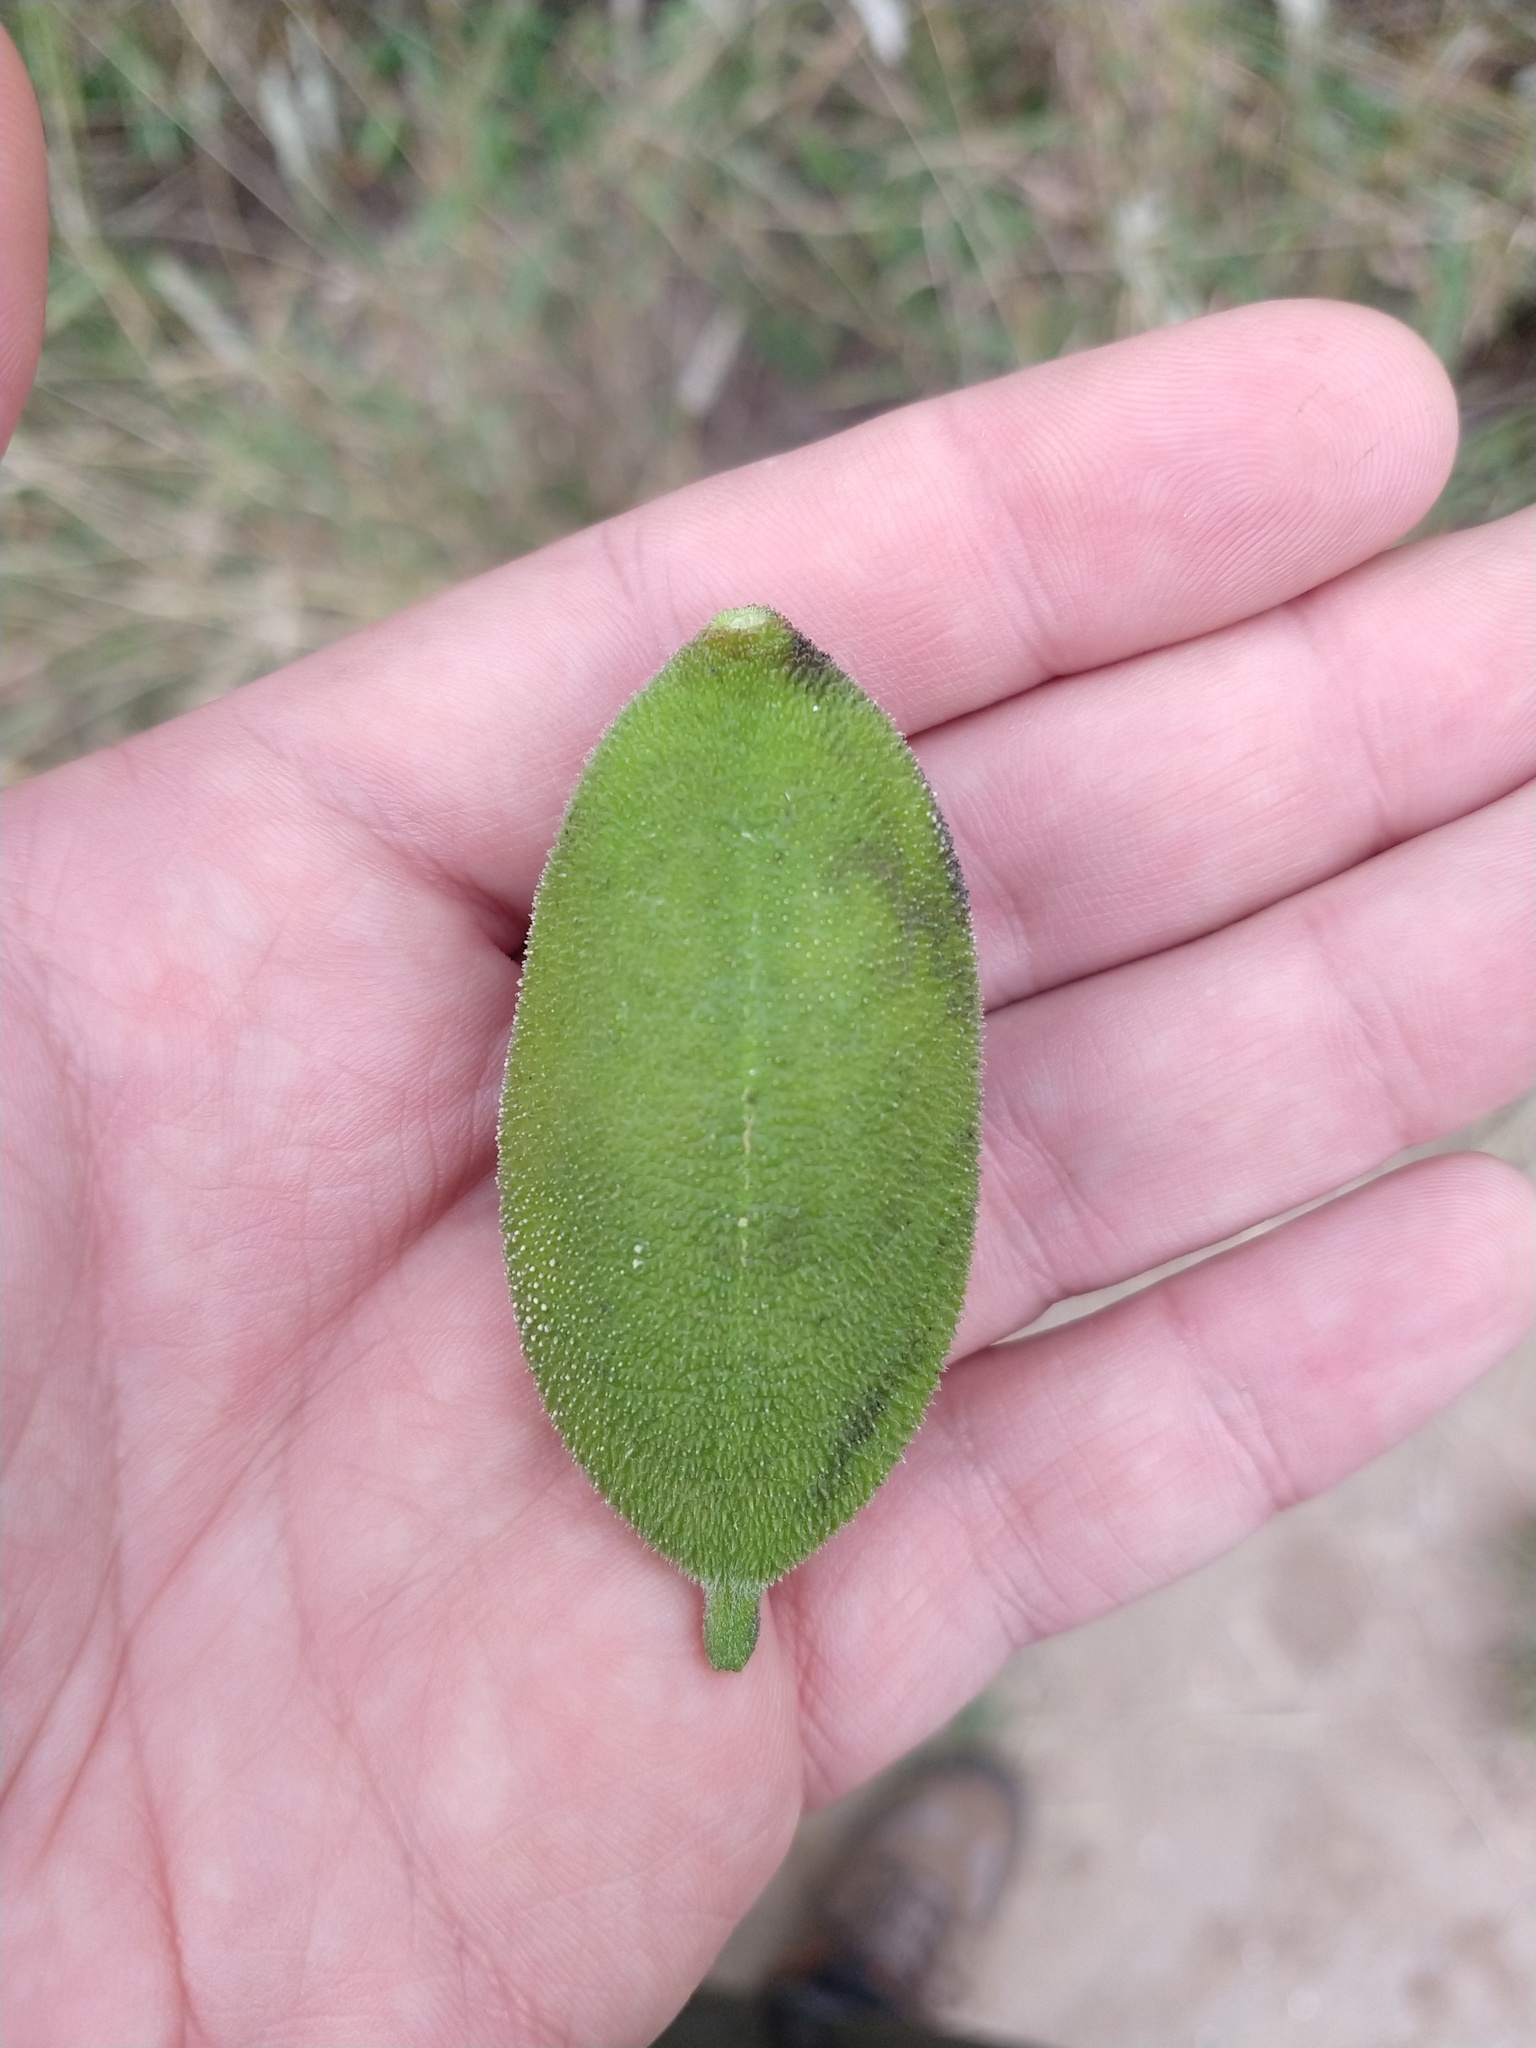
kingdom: Plantae
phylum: Tracheophyta
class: Magnoliopsida
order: Lamiales
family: Bignoniaceae
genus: Amphilophium
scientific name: Amphilophium carolinae
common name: Monkey's-comb
